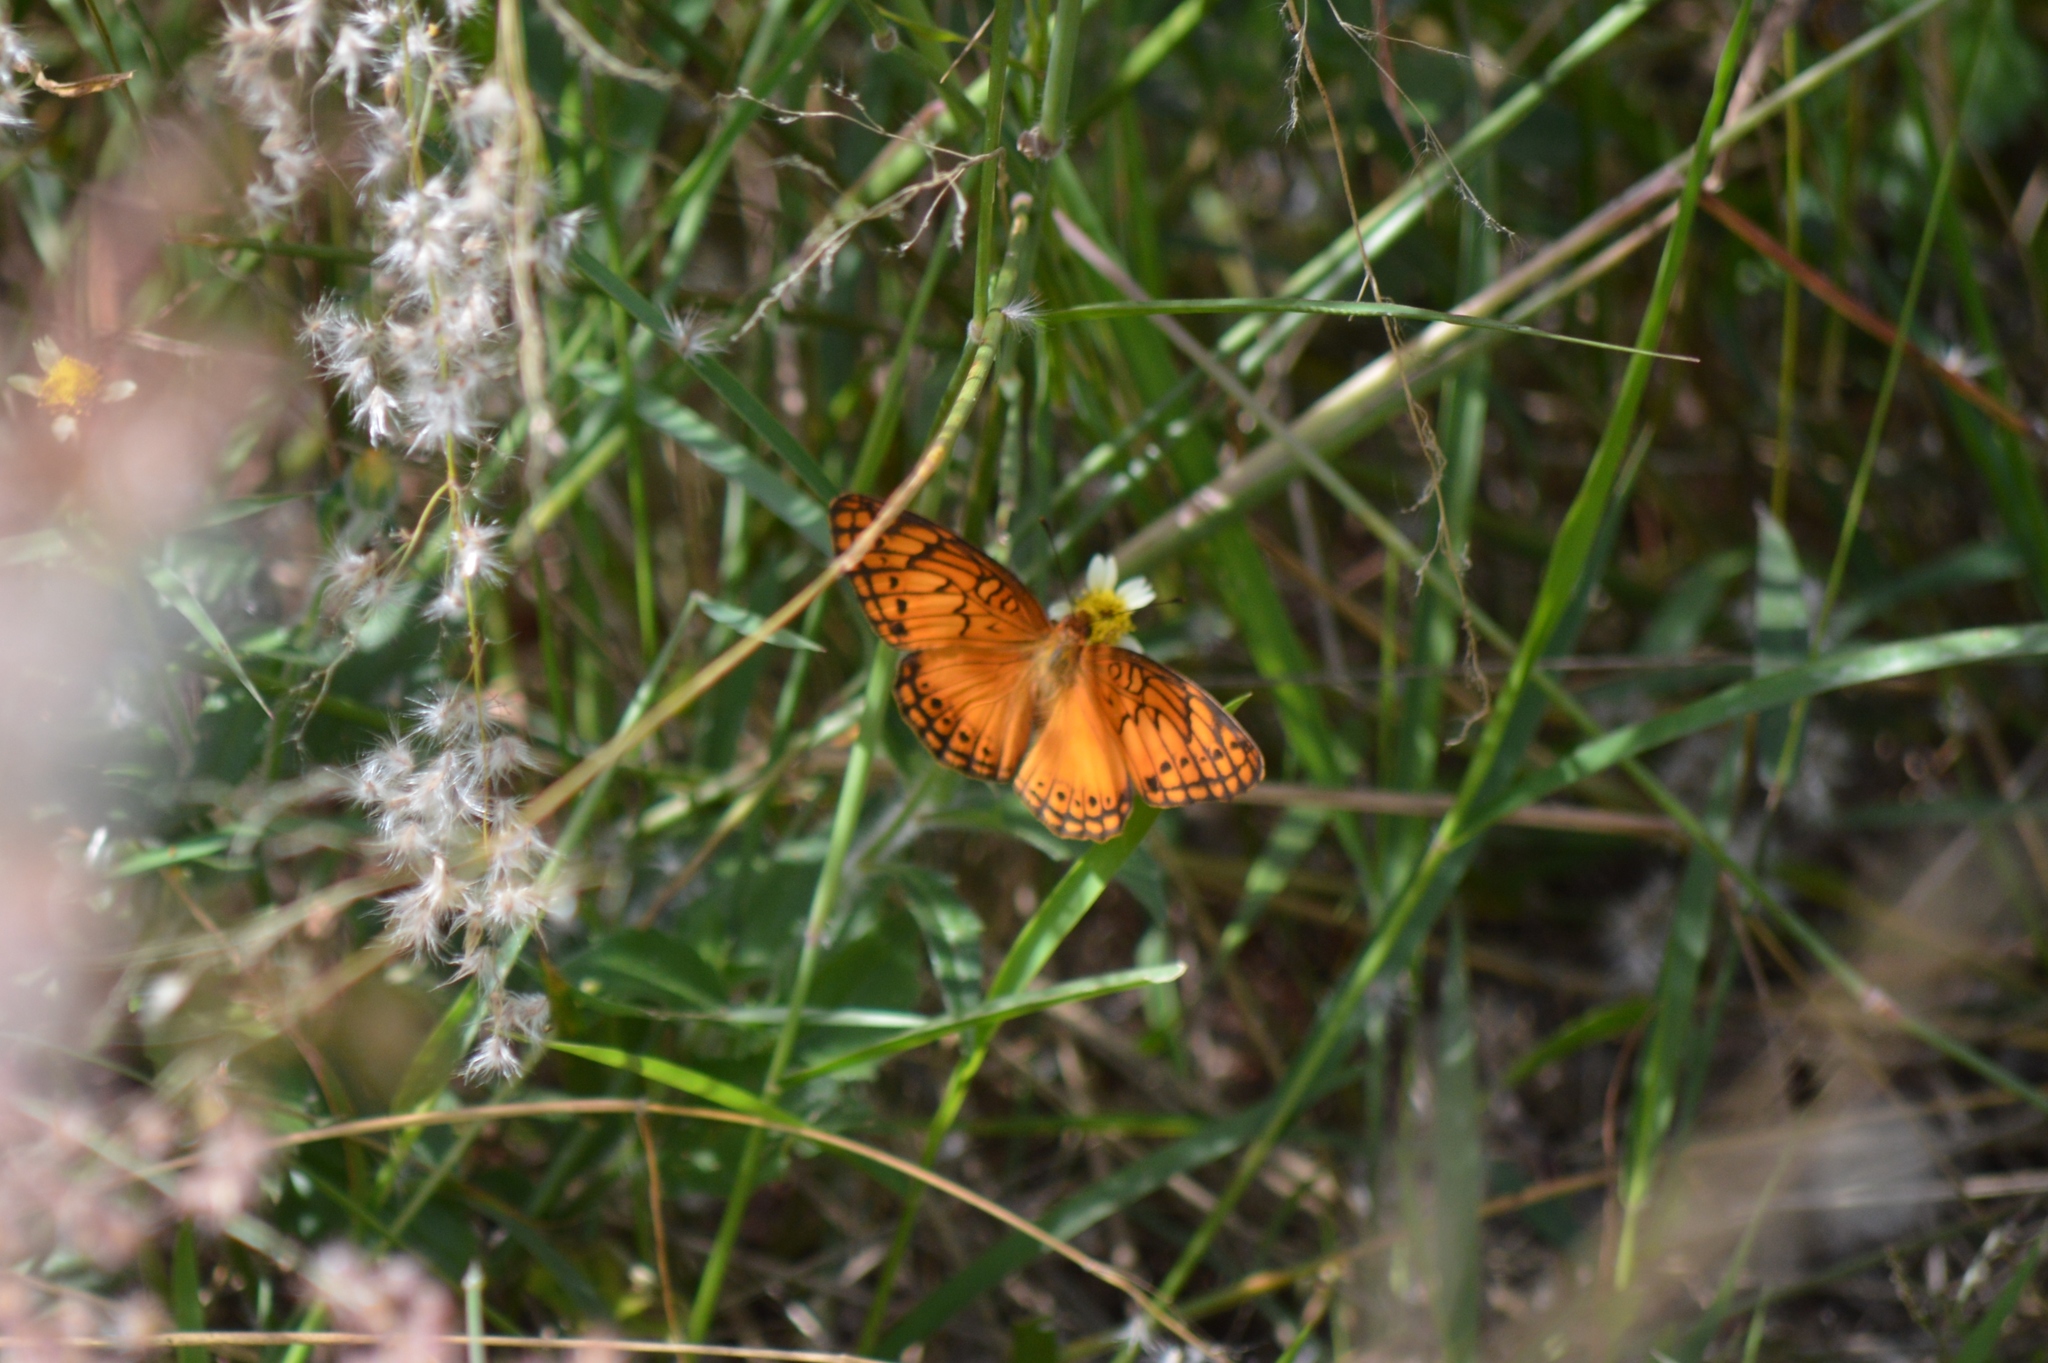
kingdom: Animalia
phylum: Arthropoda
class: Insecta
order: Lepidoptera
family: Nymphalidae
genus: Euptoieta
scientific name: Euptoieta hegesia
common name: Mexican fritillary
